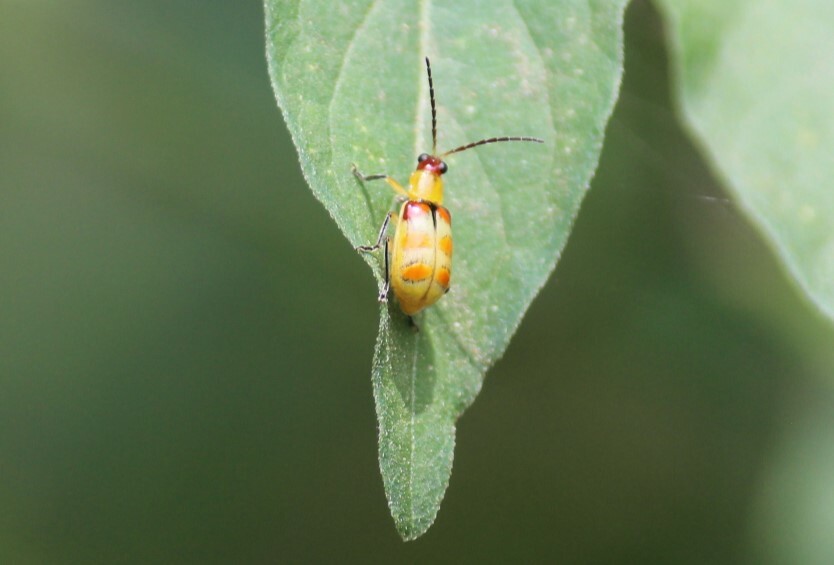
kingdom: Animalia
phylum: Arthropoda
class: Insecta
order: Coleoptera
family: Chrysomelidae
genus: Diabrotica
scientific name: Diabrotica speciosa
